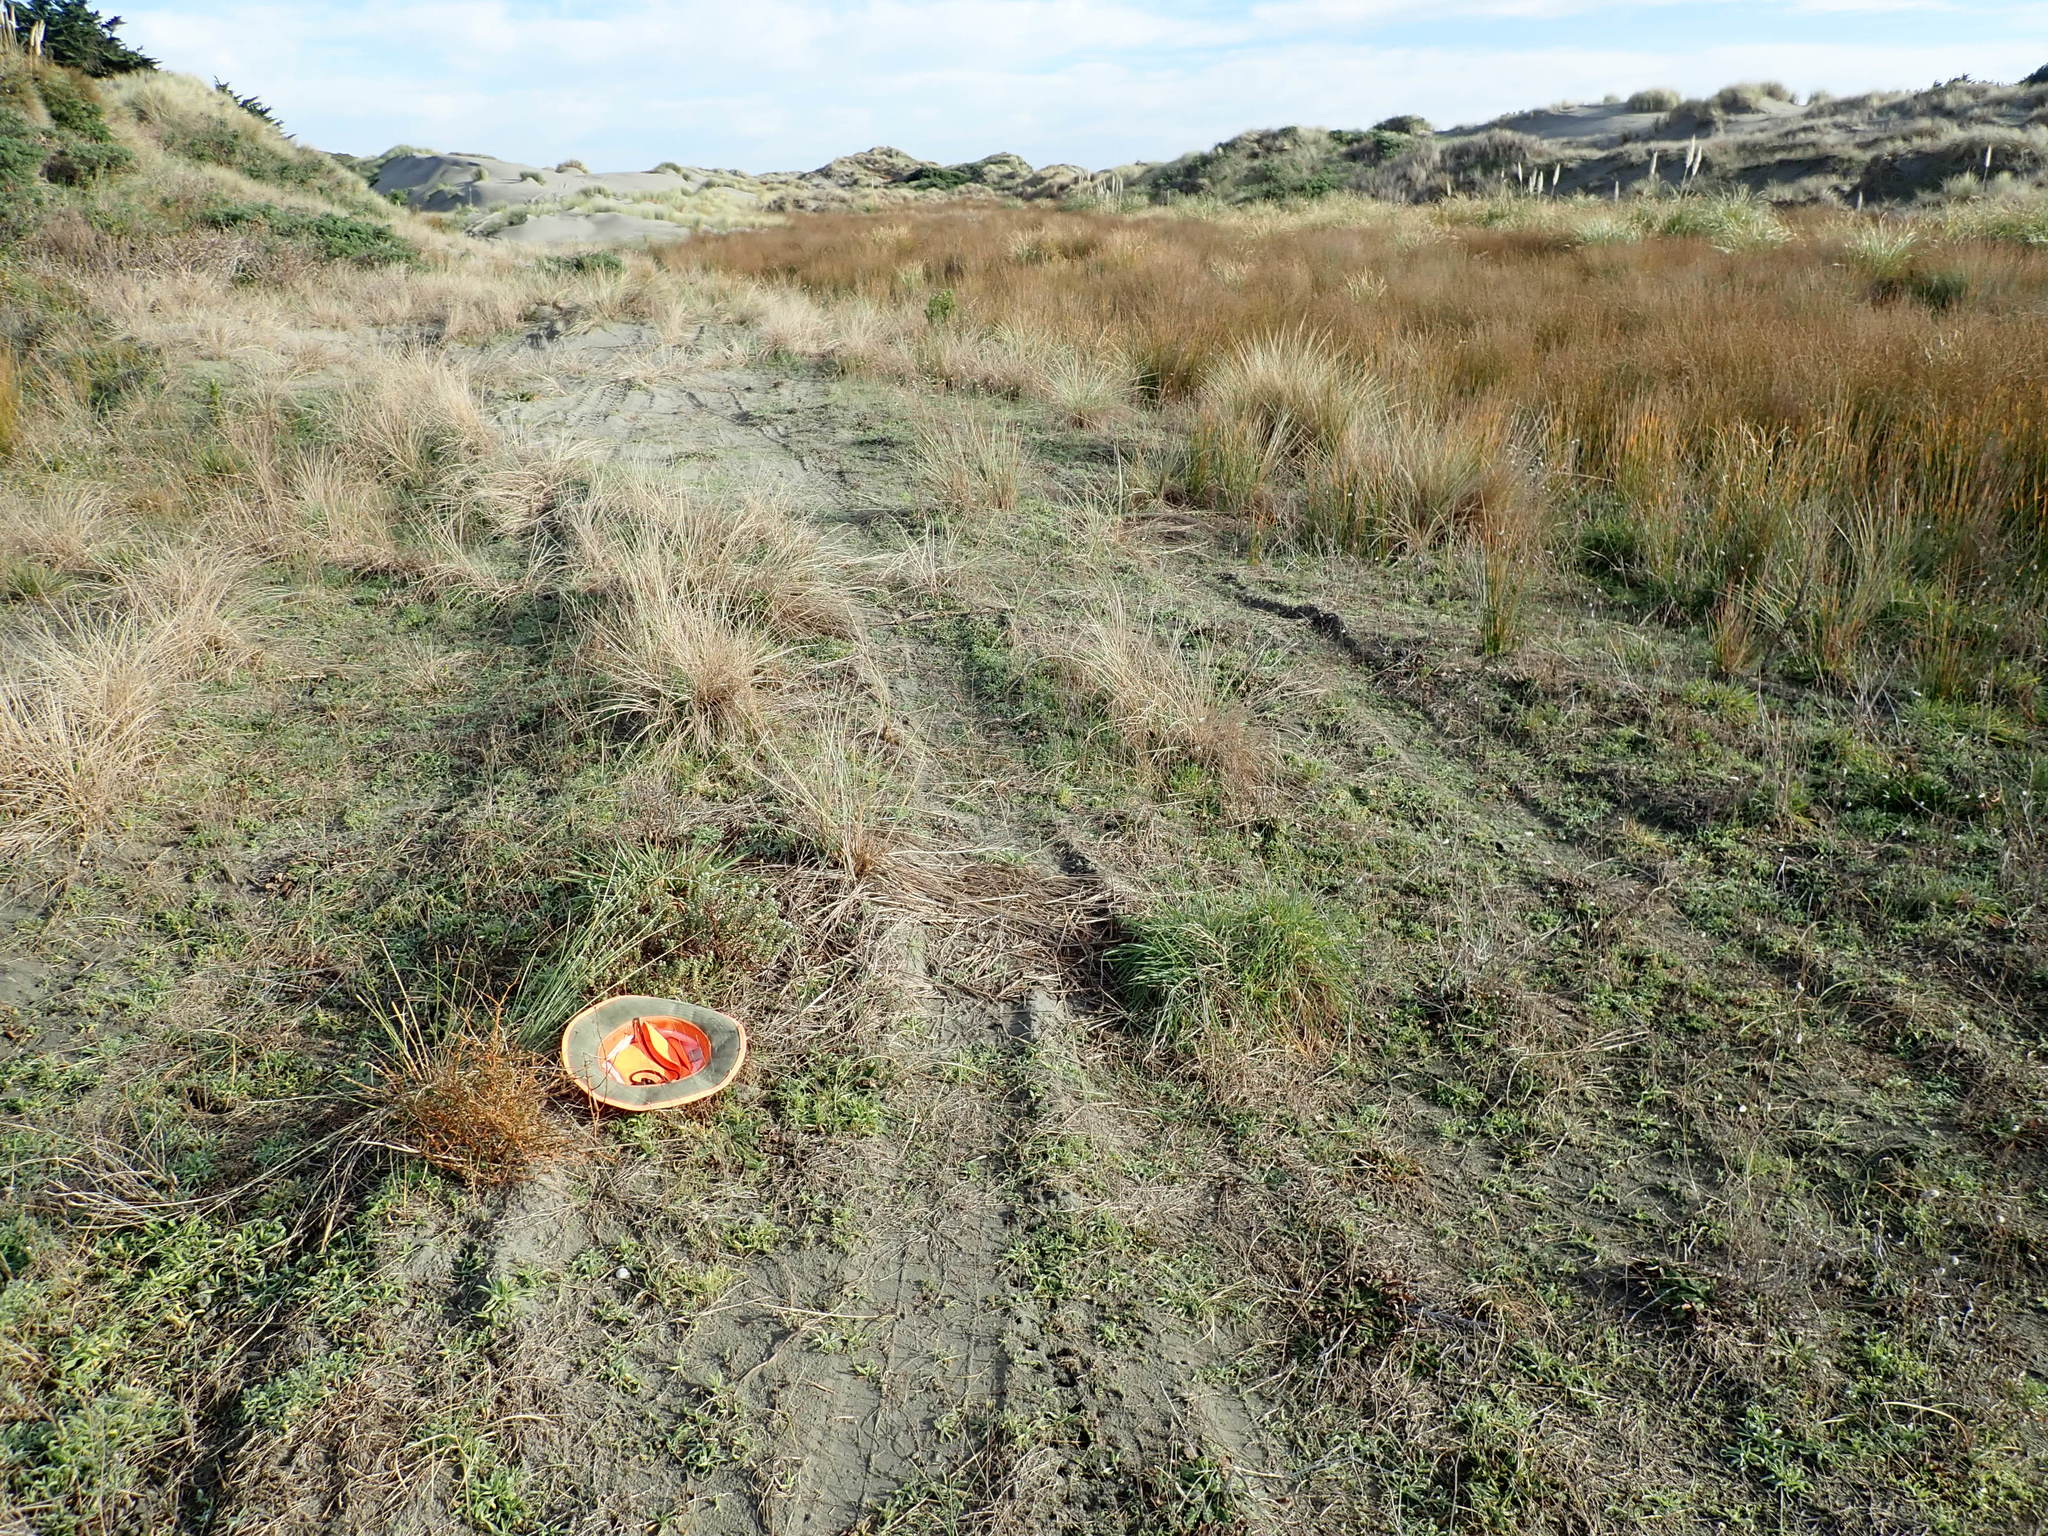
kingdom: Plantae
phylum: Tracheophyta
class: Magnoliopsida
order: Malvales
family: Thymelaeaceae
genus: Pimelea
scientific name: Pimelea villosa
